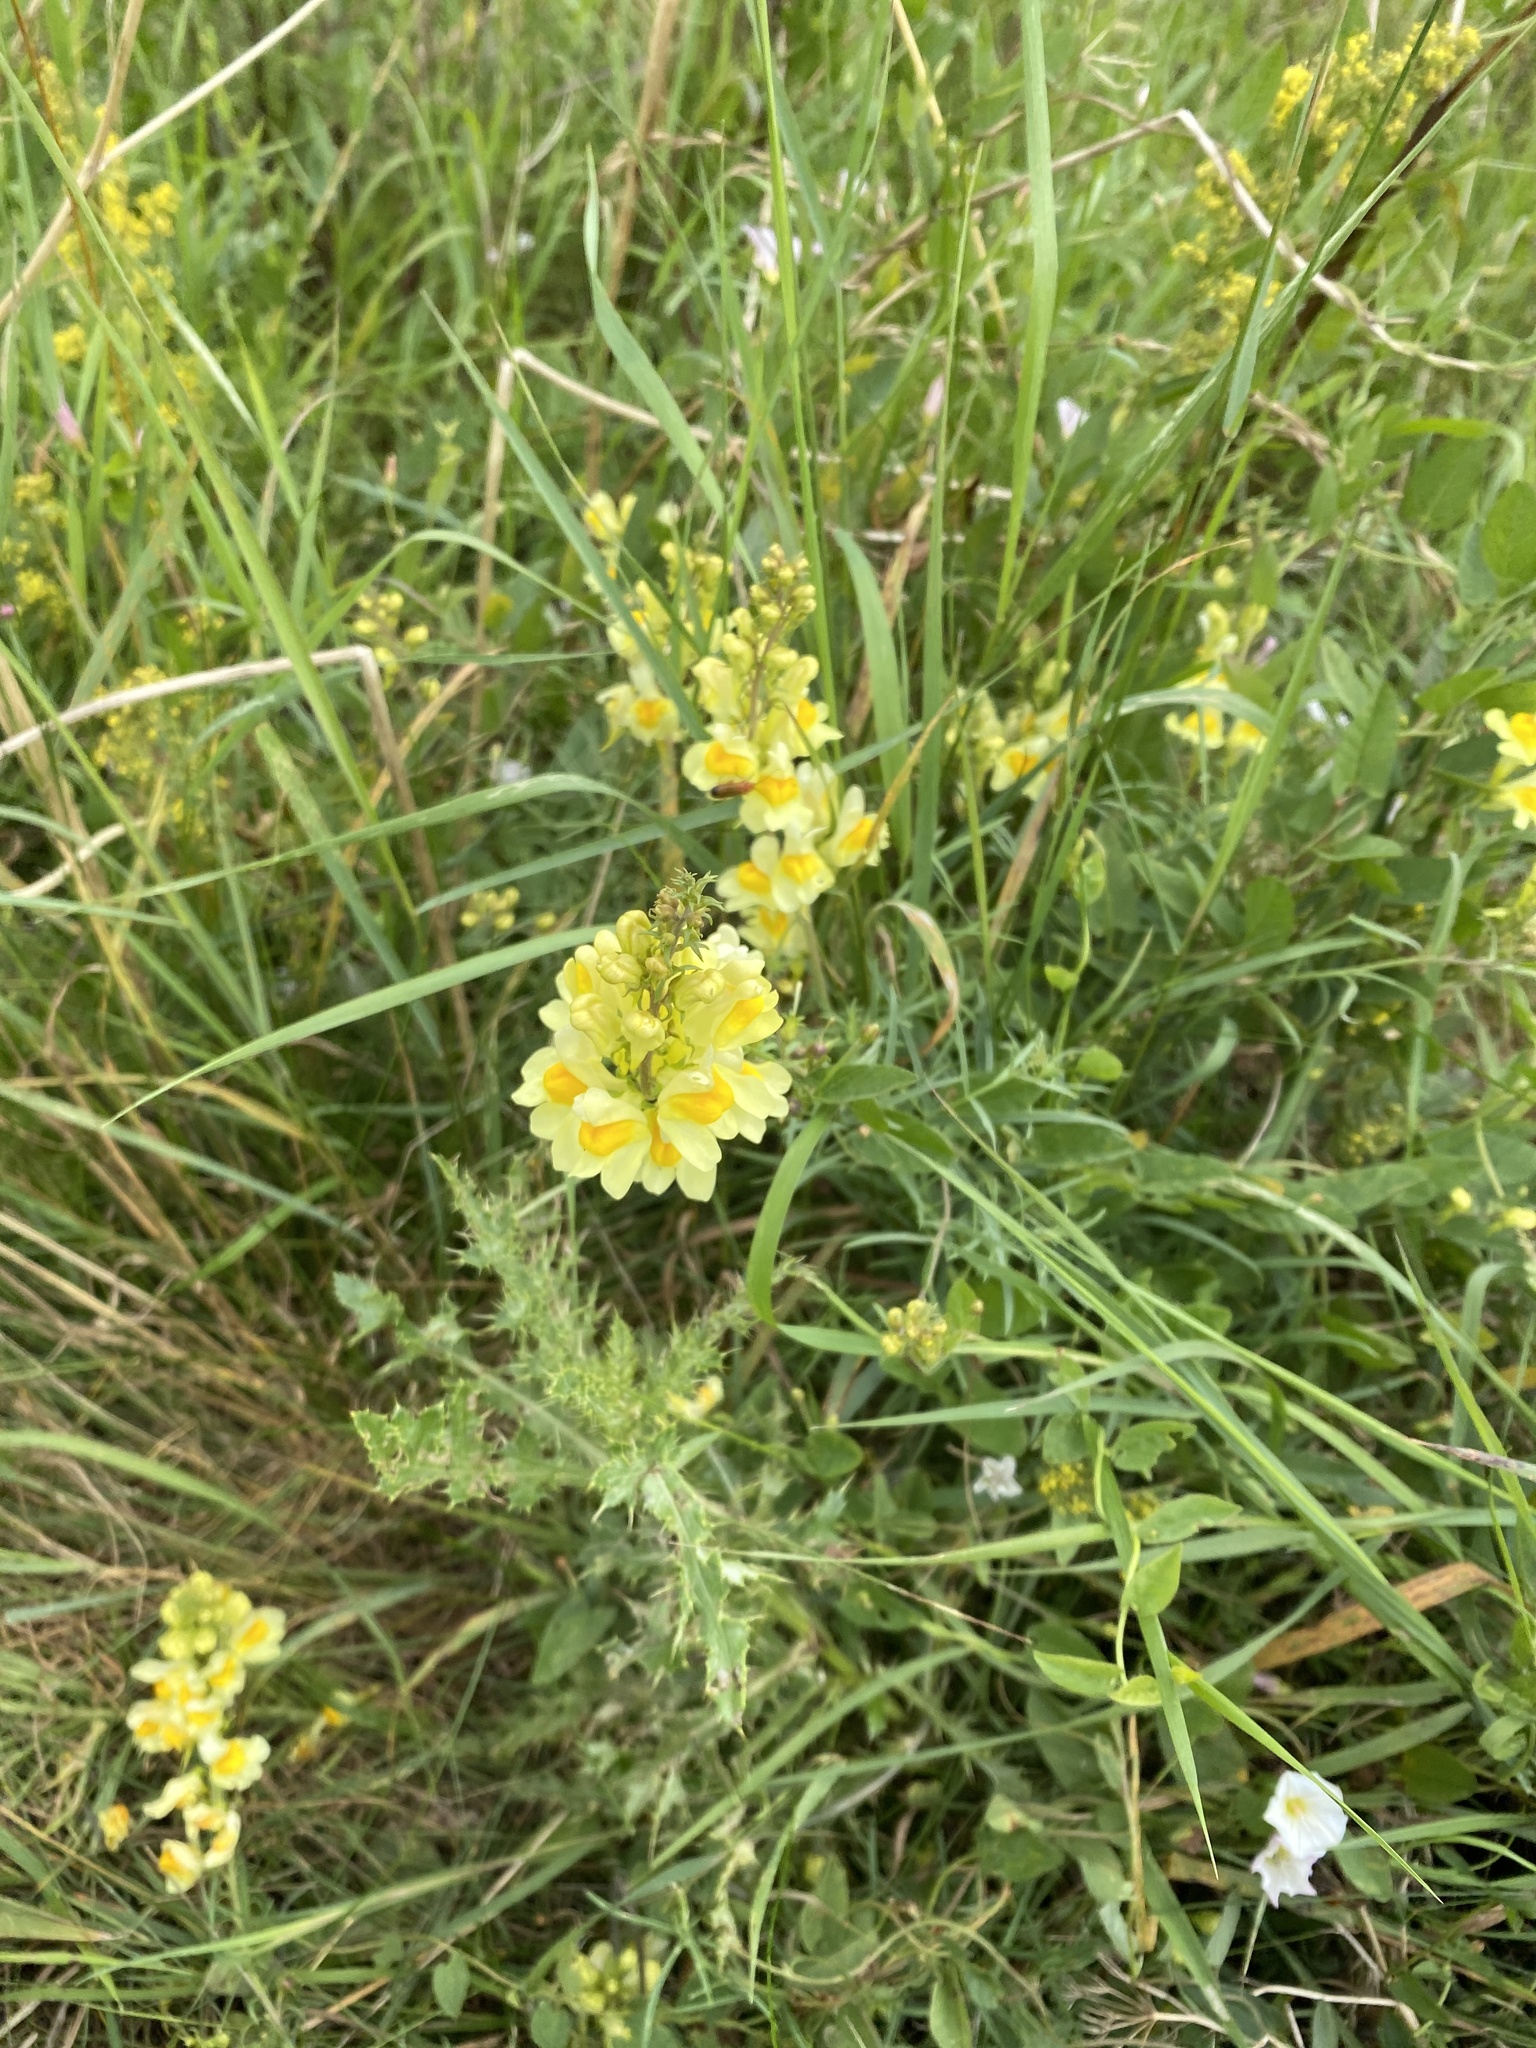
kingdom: Plantae
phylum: Tracheophyta
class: Magnoliopsida
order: Lamiales
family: Plantaginaceae
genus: Linaria
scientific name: Linaria vulgaris
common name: Butter and eggs
